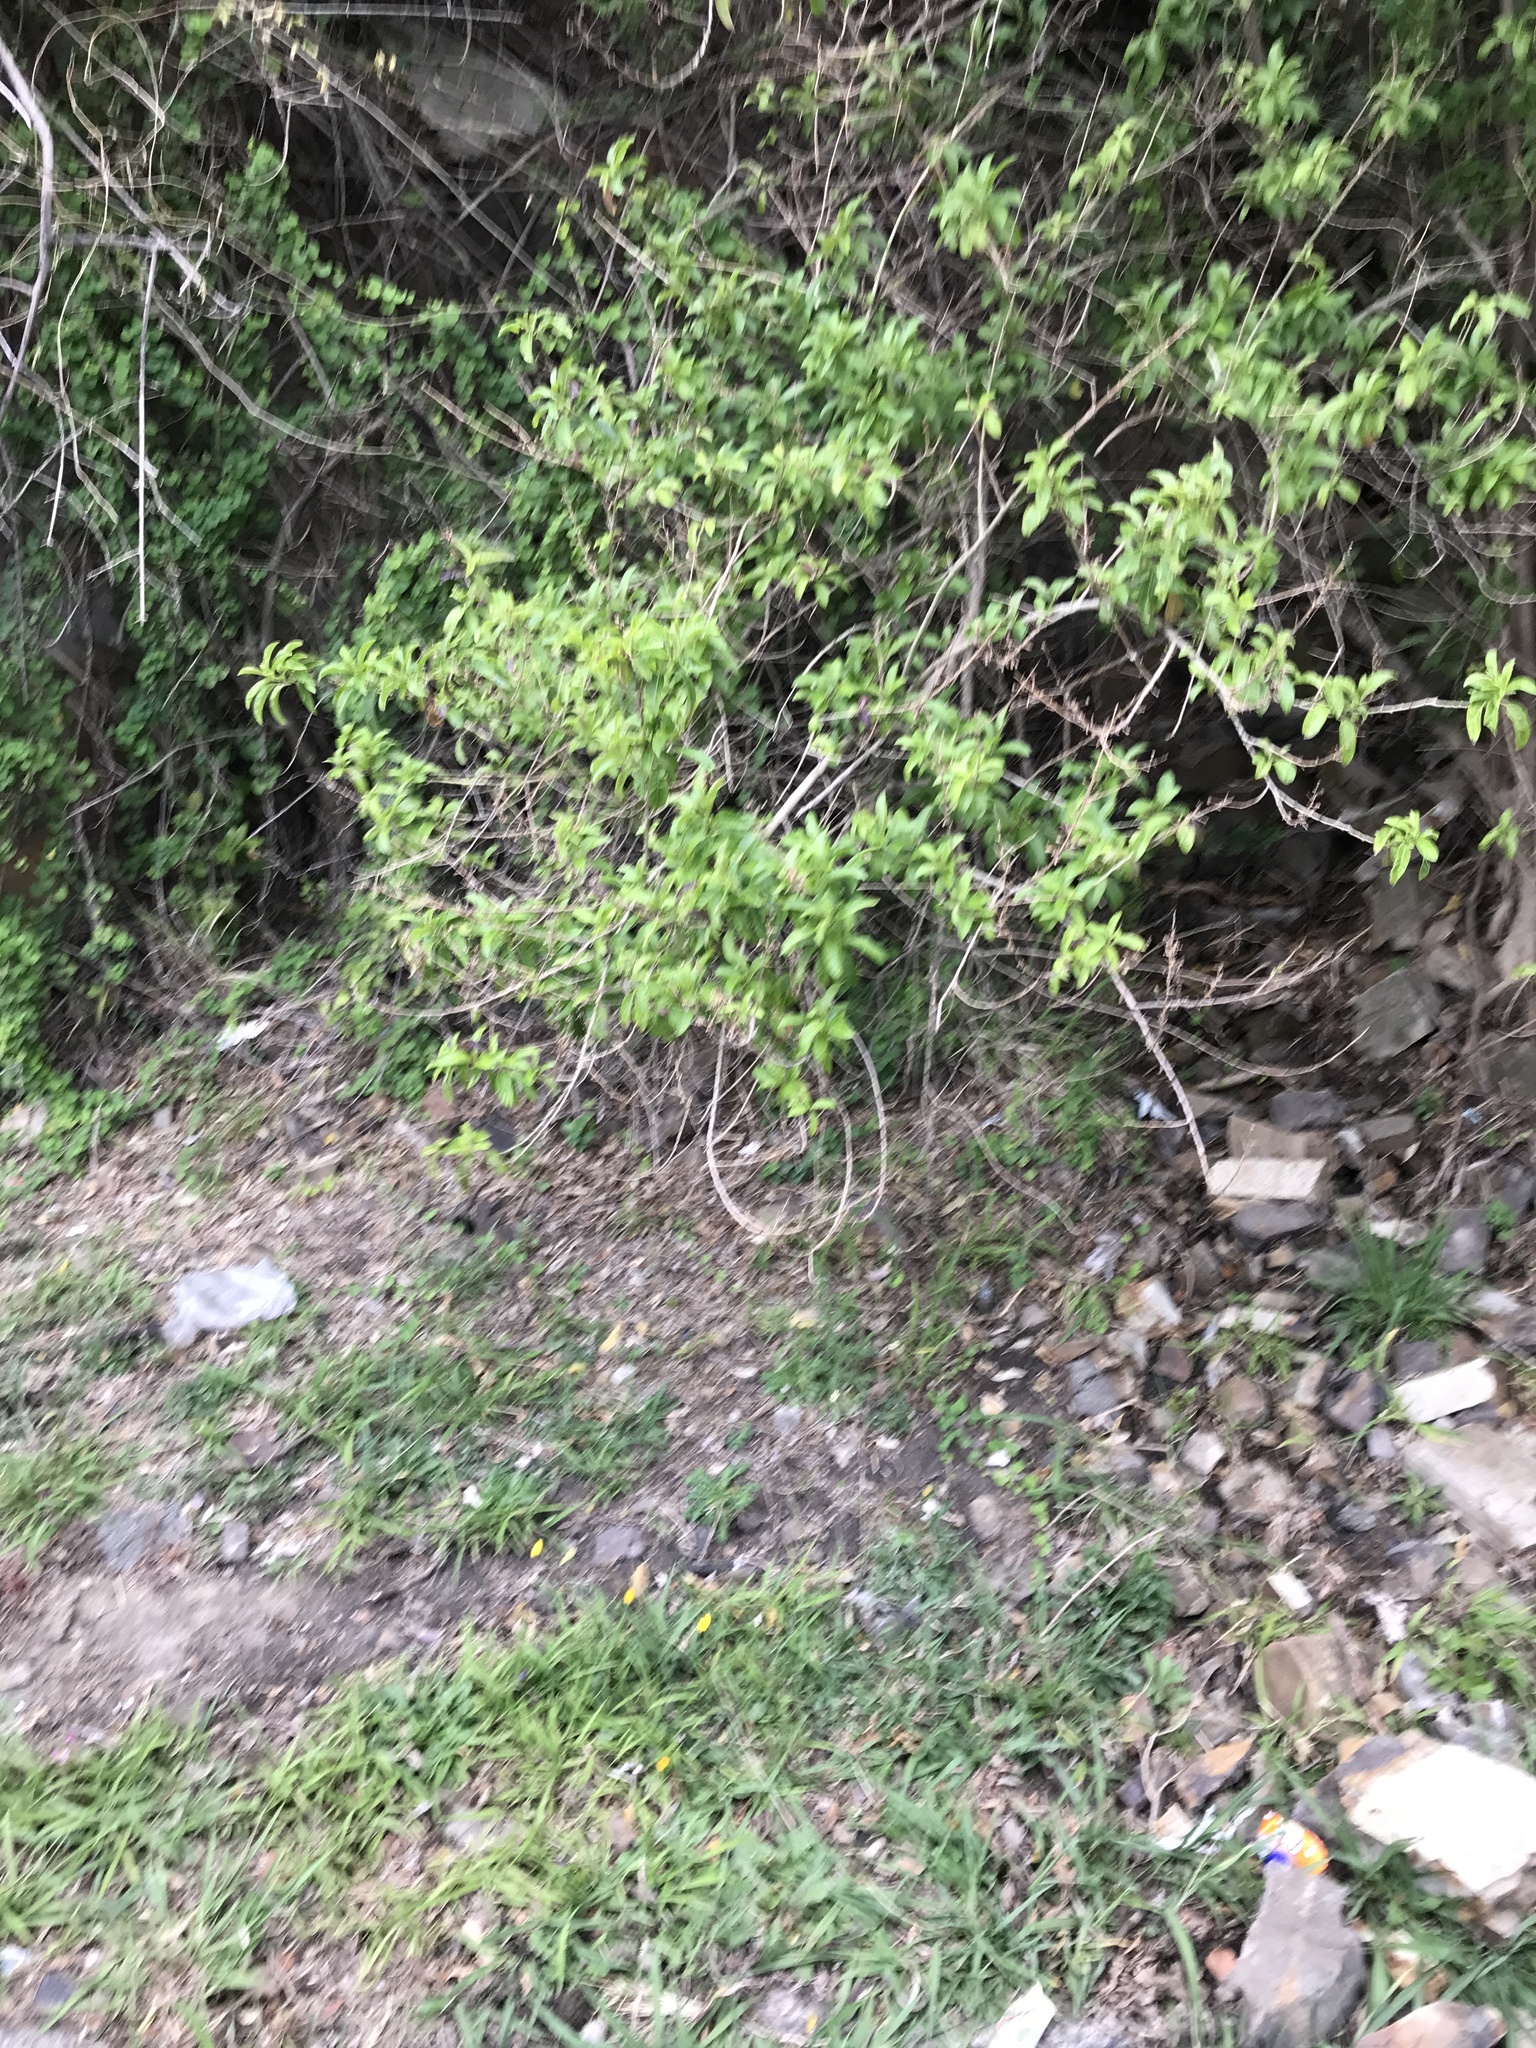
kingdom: Plantae
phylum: Tracheophyta
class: Magnoliopsida
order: Solanales
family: Solanaceae
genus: Cestrum
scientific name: Cestrum laevigatum
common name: Inkberry
